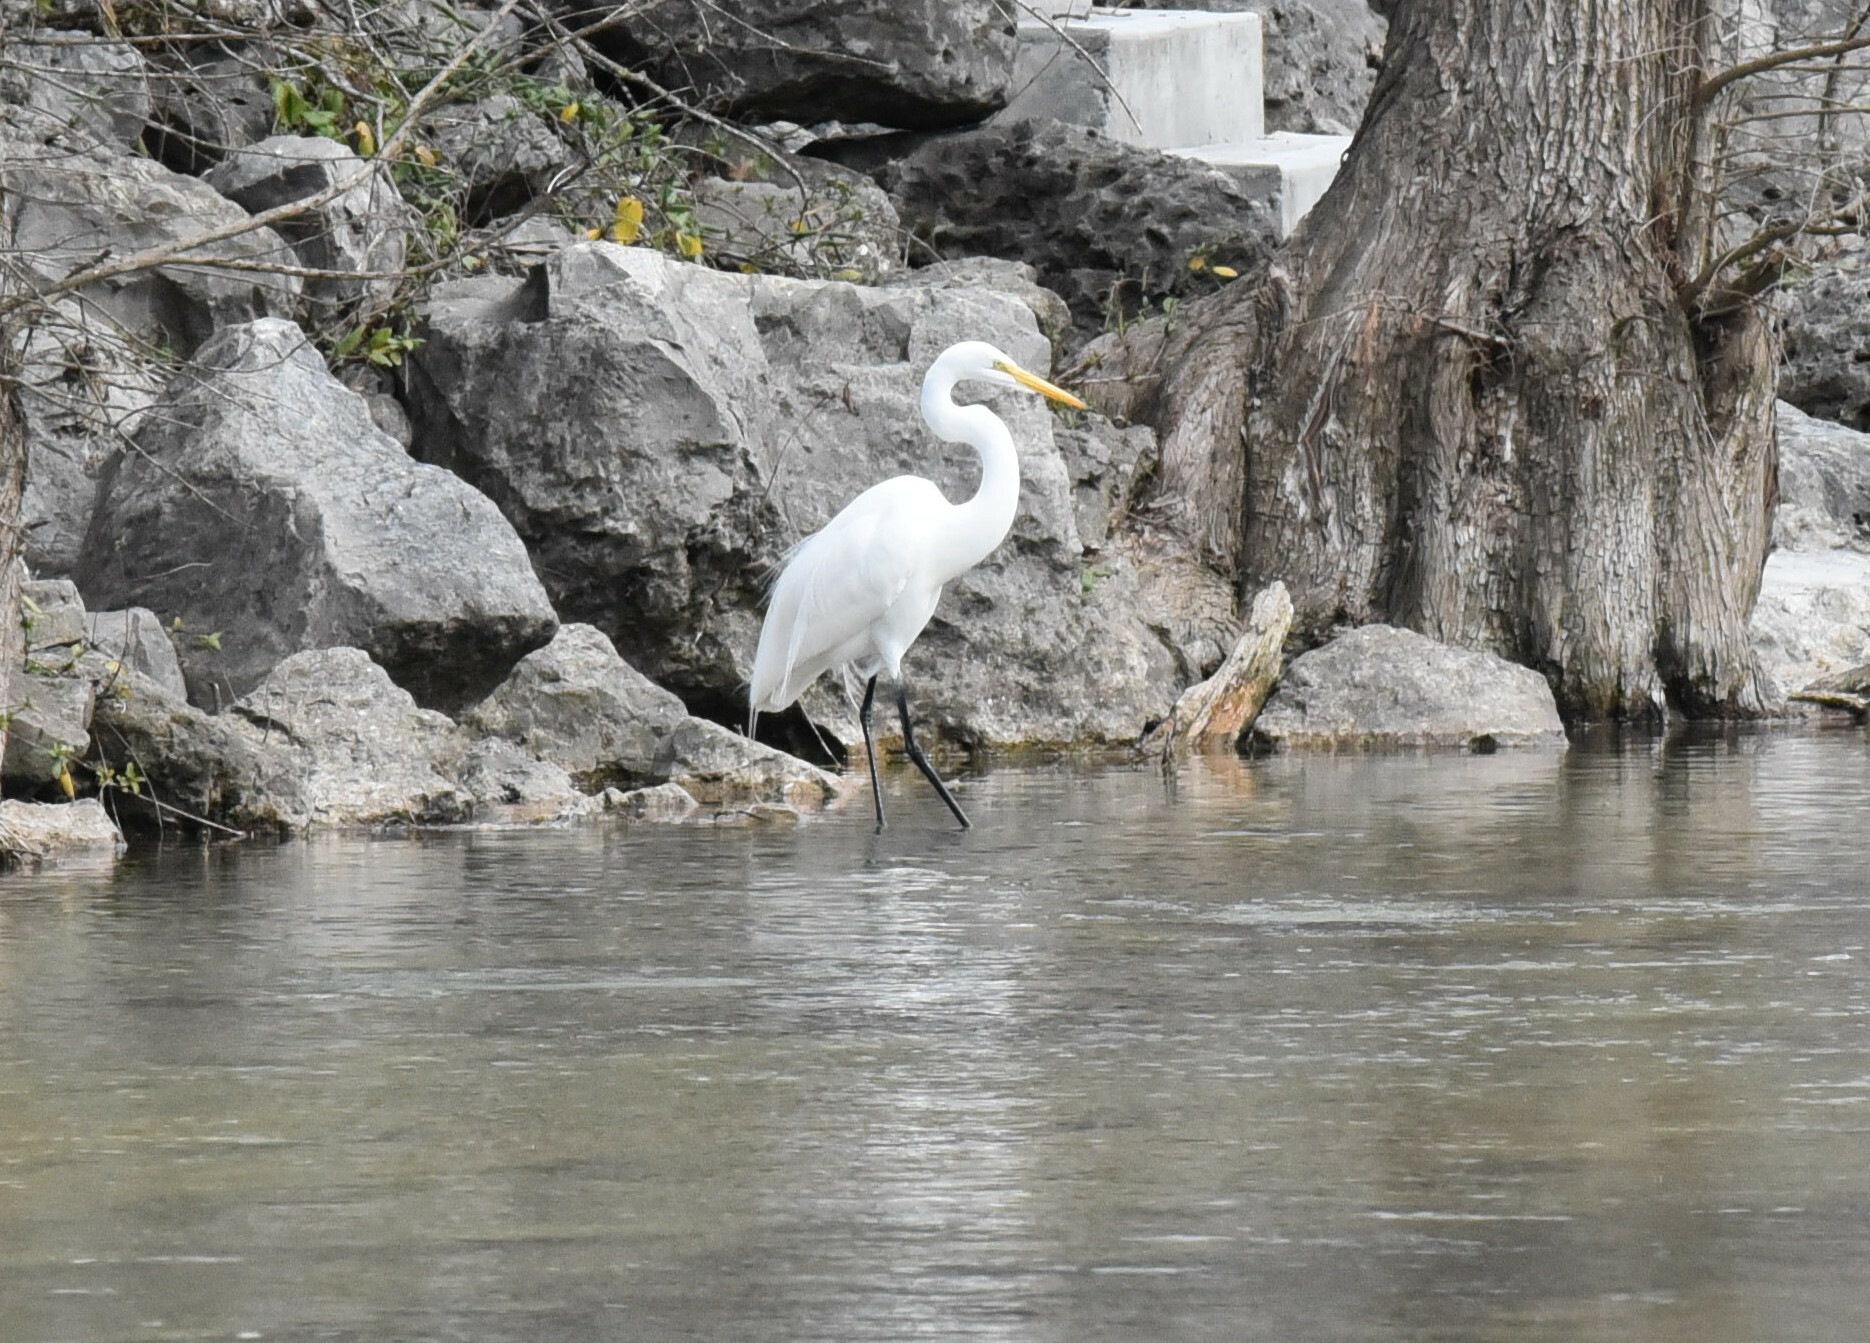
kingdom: Animalia
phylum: Chordata
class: Aves
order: Pelecaniformes
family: Ardeidae
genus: Ardea
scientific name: Ardea alba
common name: Great egret
